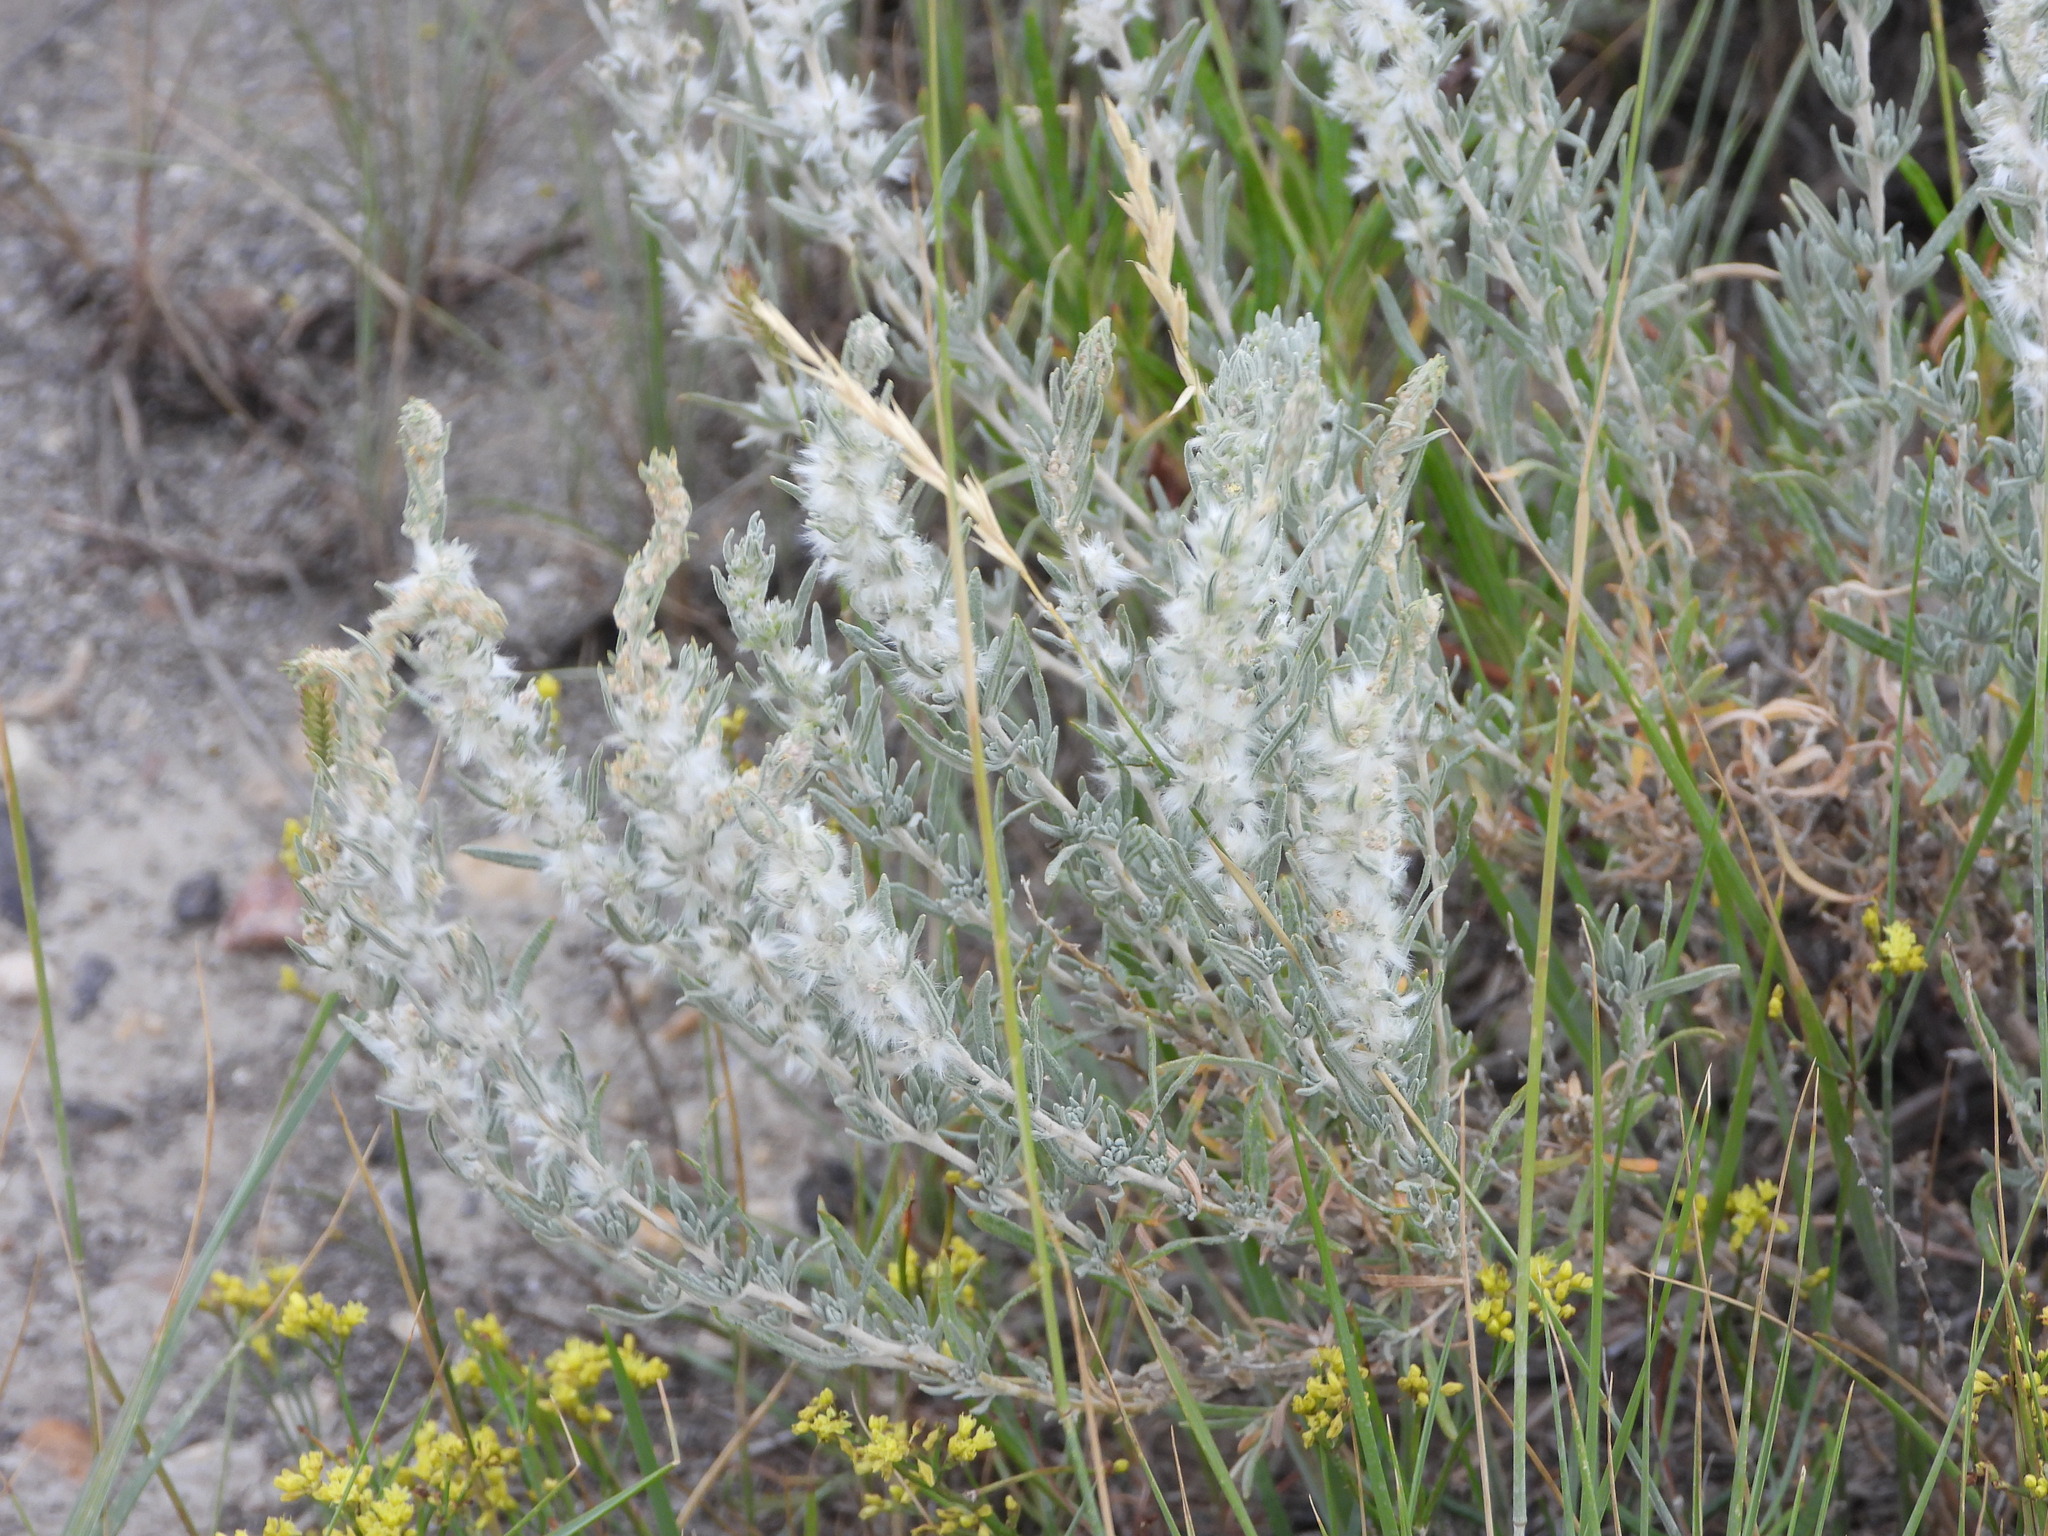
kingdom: Plantae
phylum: Tracheophyta
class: Magnoliopsida
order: Caryophyllales
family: Amaranthaceae
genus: Krascheninnikovia
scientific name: Krascheninnikovia lanata
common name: Winterfat
